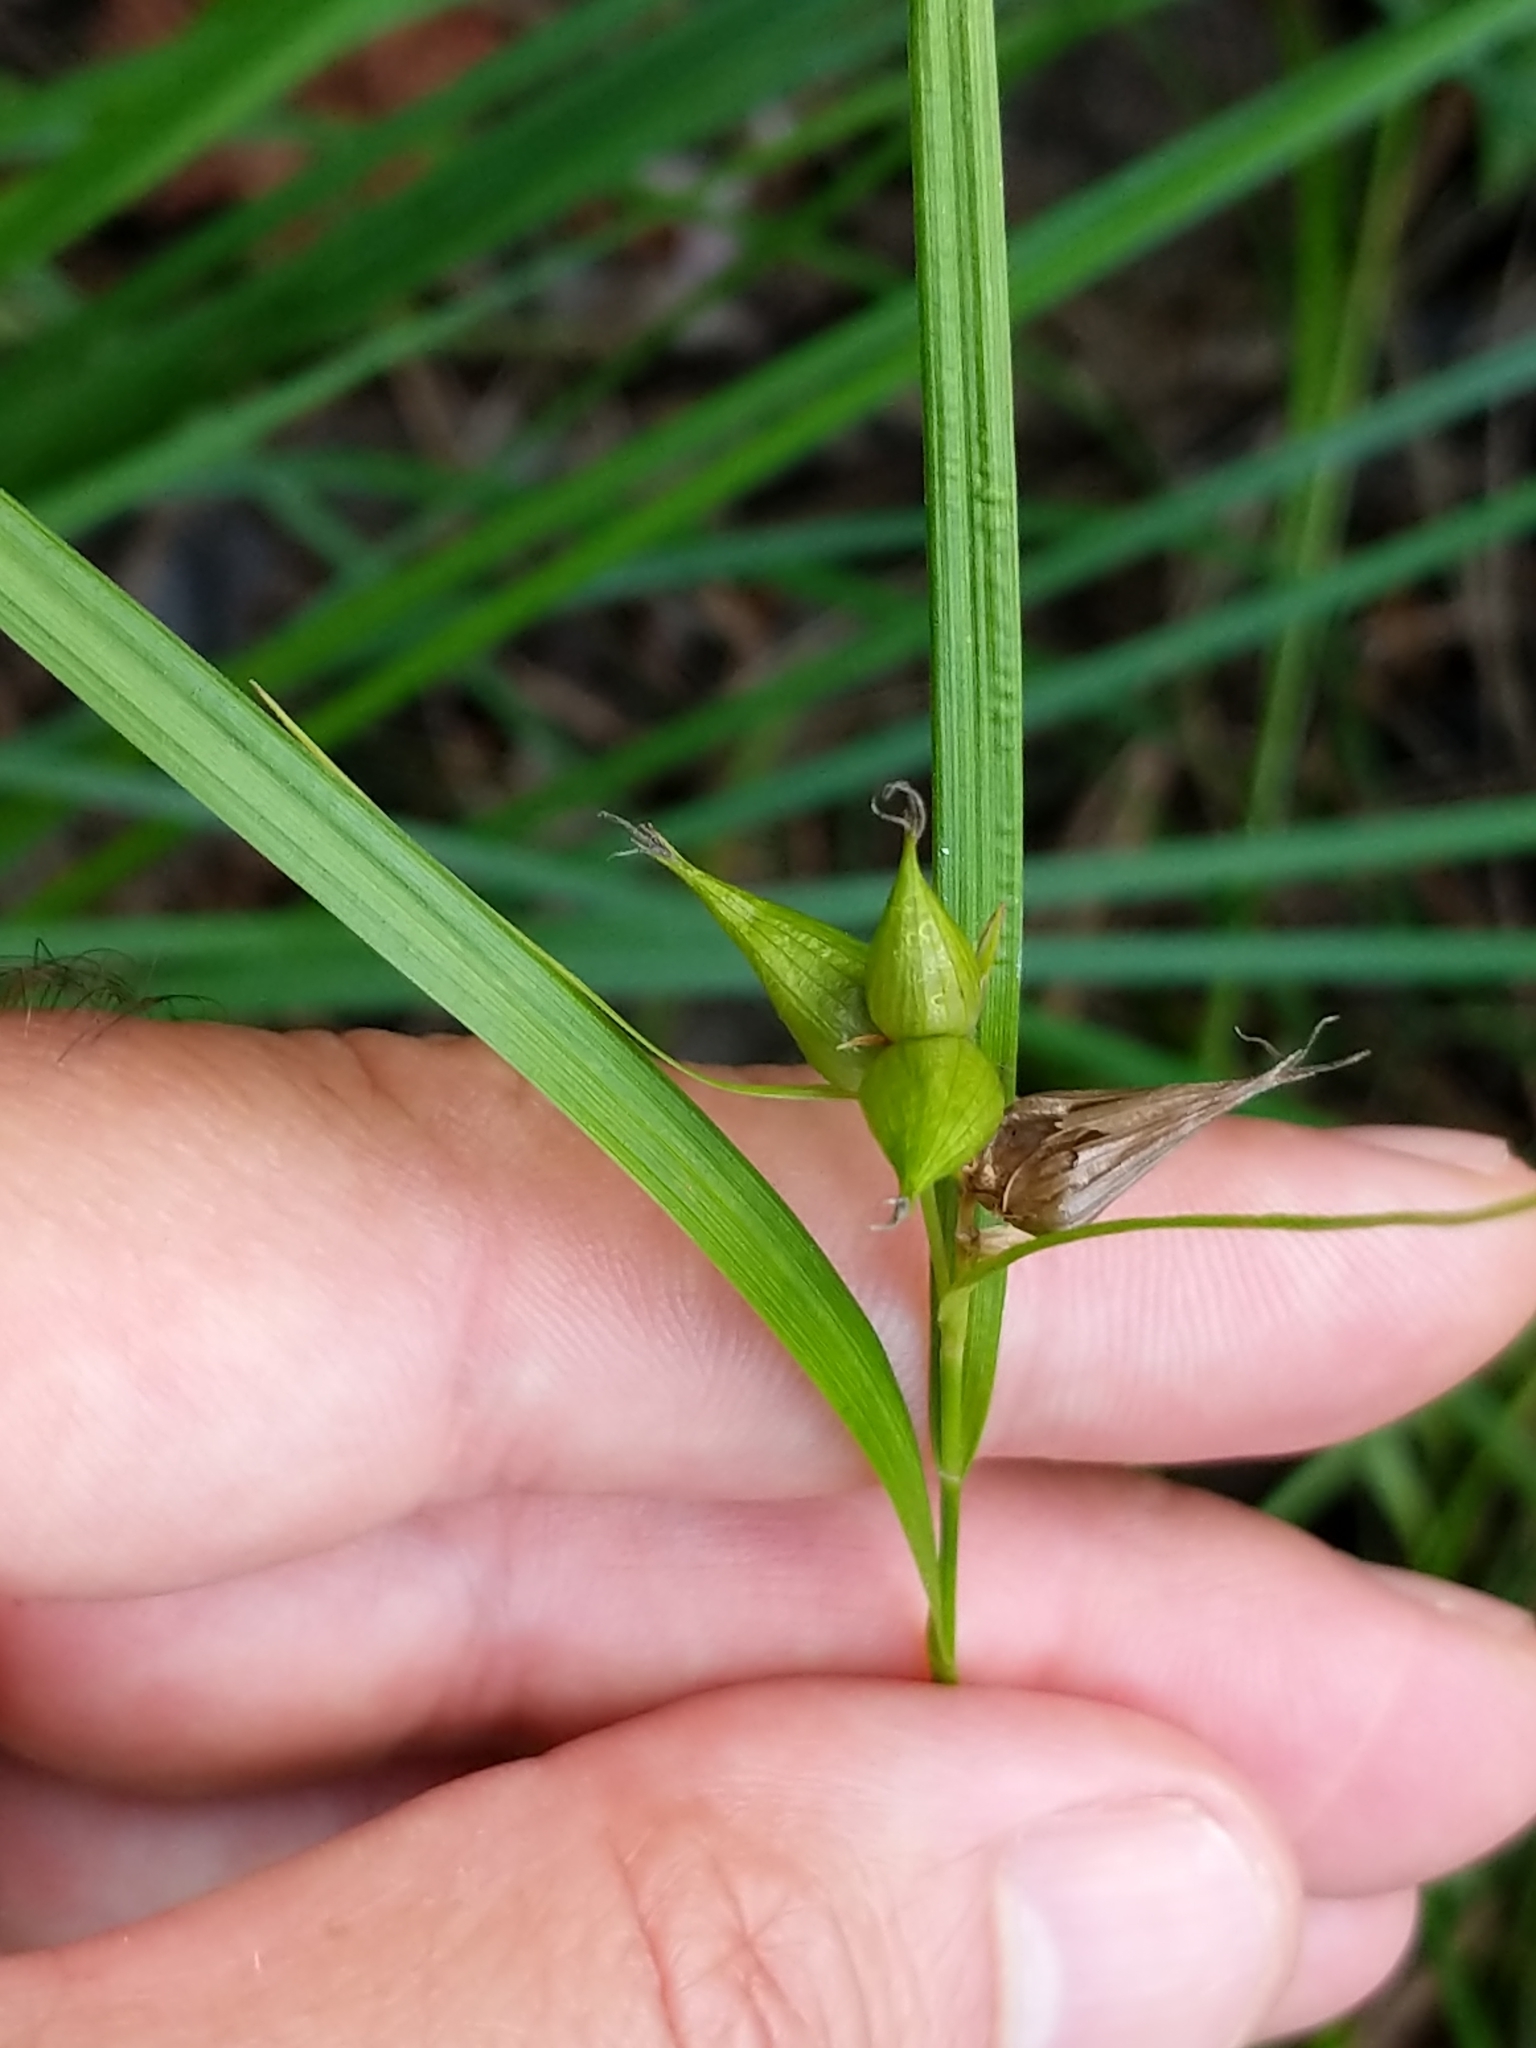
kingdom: Plantae
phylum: Tracheophyta
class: Liliopsida
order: Poales
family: Cyperaceae
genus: Carex
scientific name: Carex intumescens
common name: Greater bladder sedge
